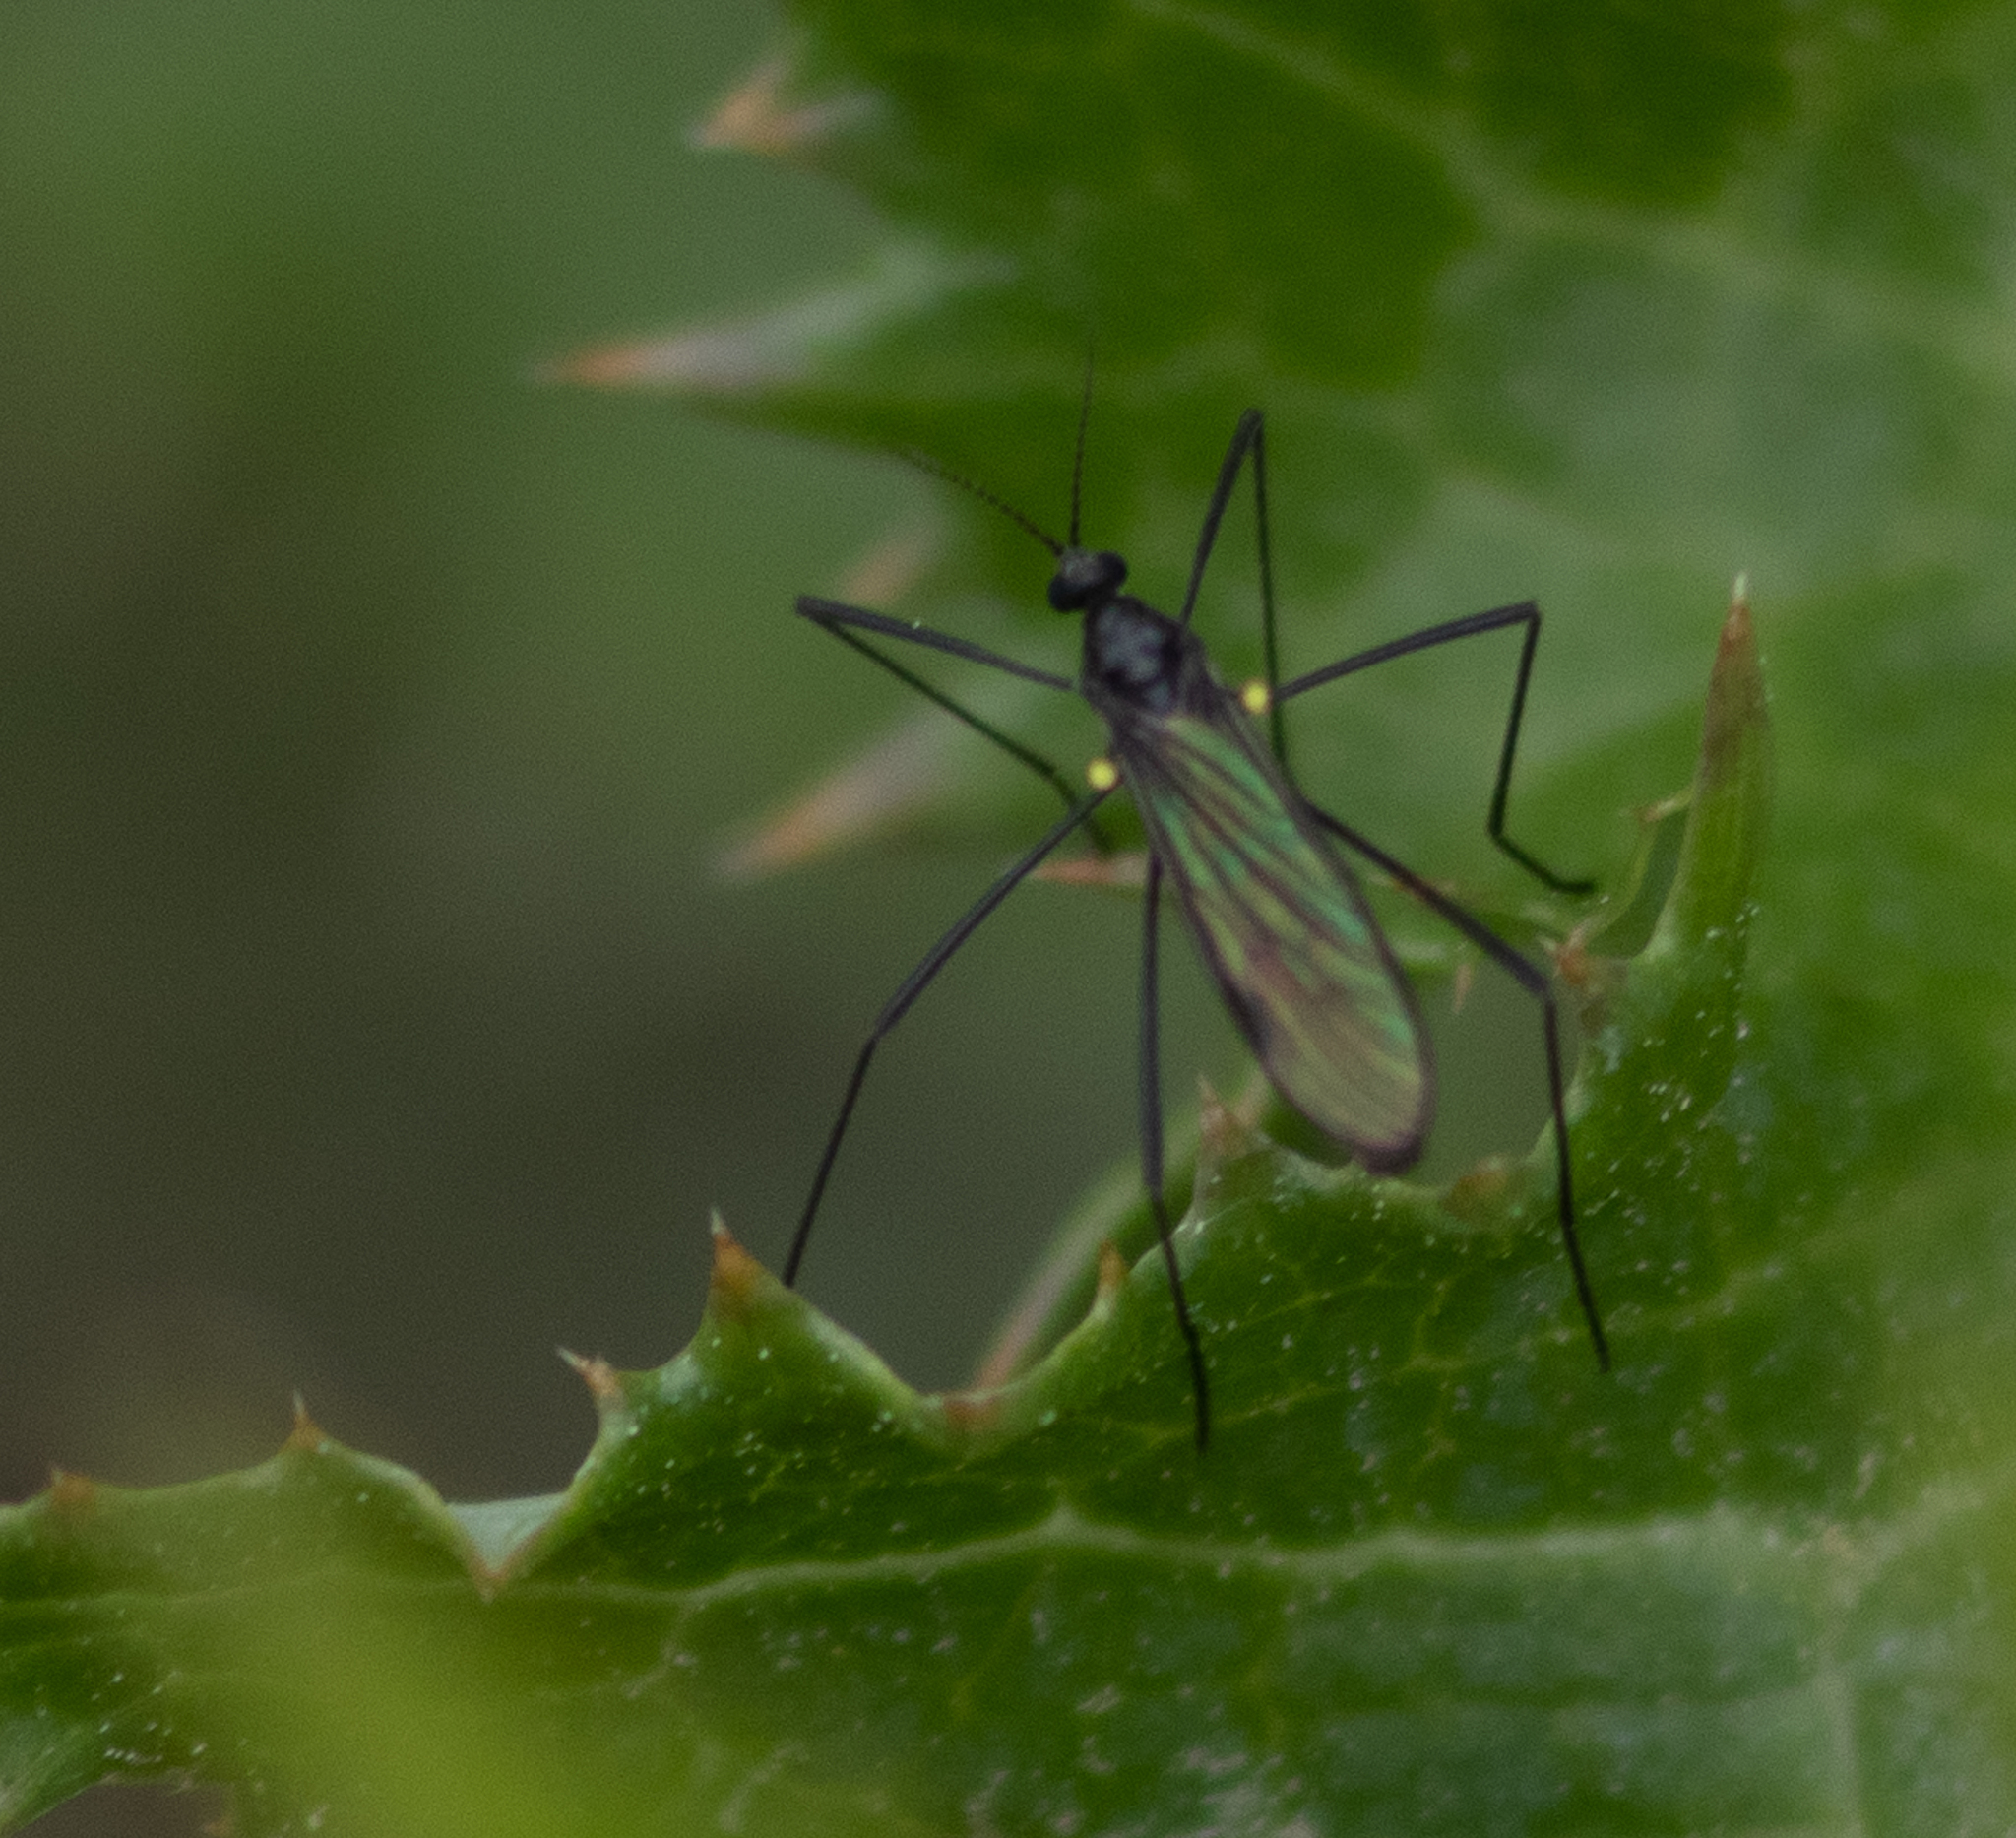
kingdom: Animalia
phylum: Arthropoda
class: Insecta
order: Diptera
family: Limoniidae
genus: Gnophomyia
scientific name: Gnophomyia tristissima
